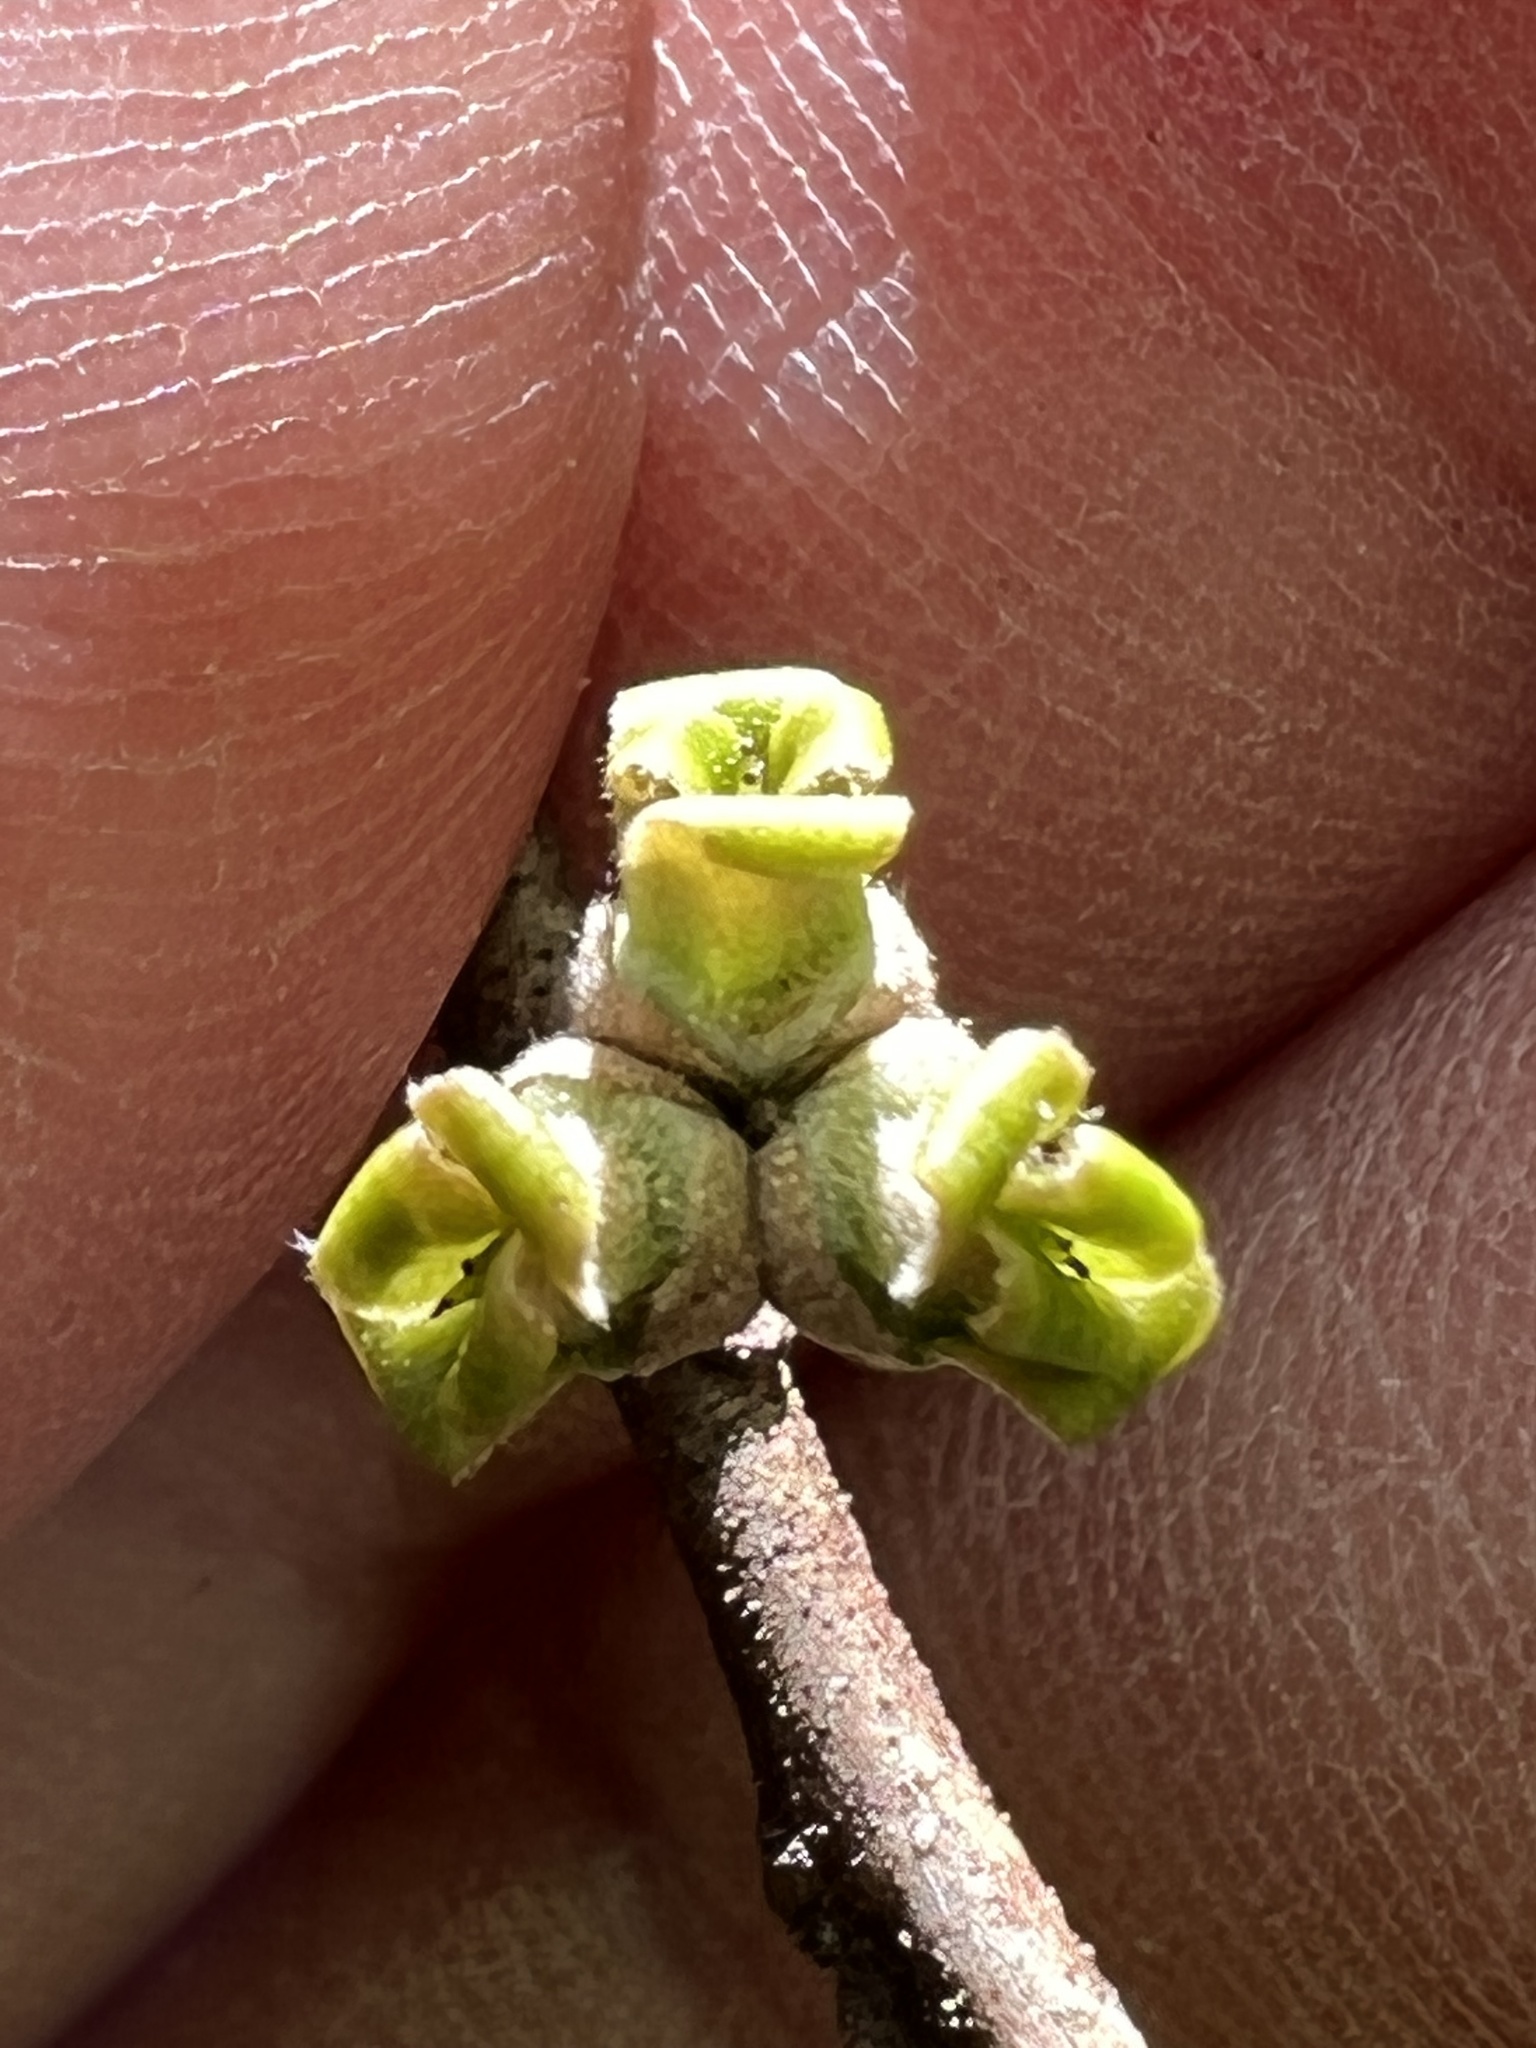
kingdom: Animalia
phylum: Arthropoda
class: Insecta
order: Hemiptera
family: Aphididae
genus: Hormaphis
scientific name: Hormaphis hamamelidis
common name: Witch-hazel cone gall aphid
